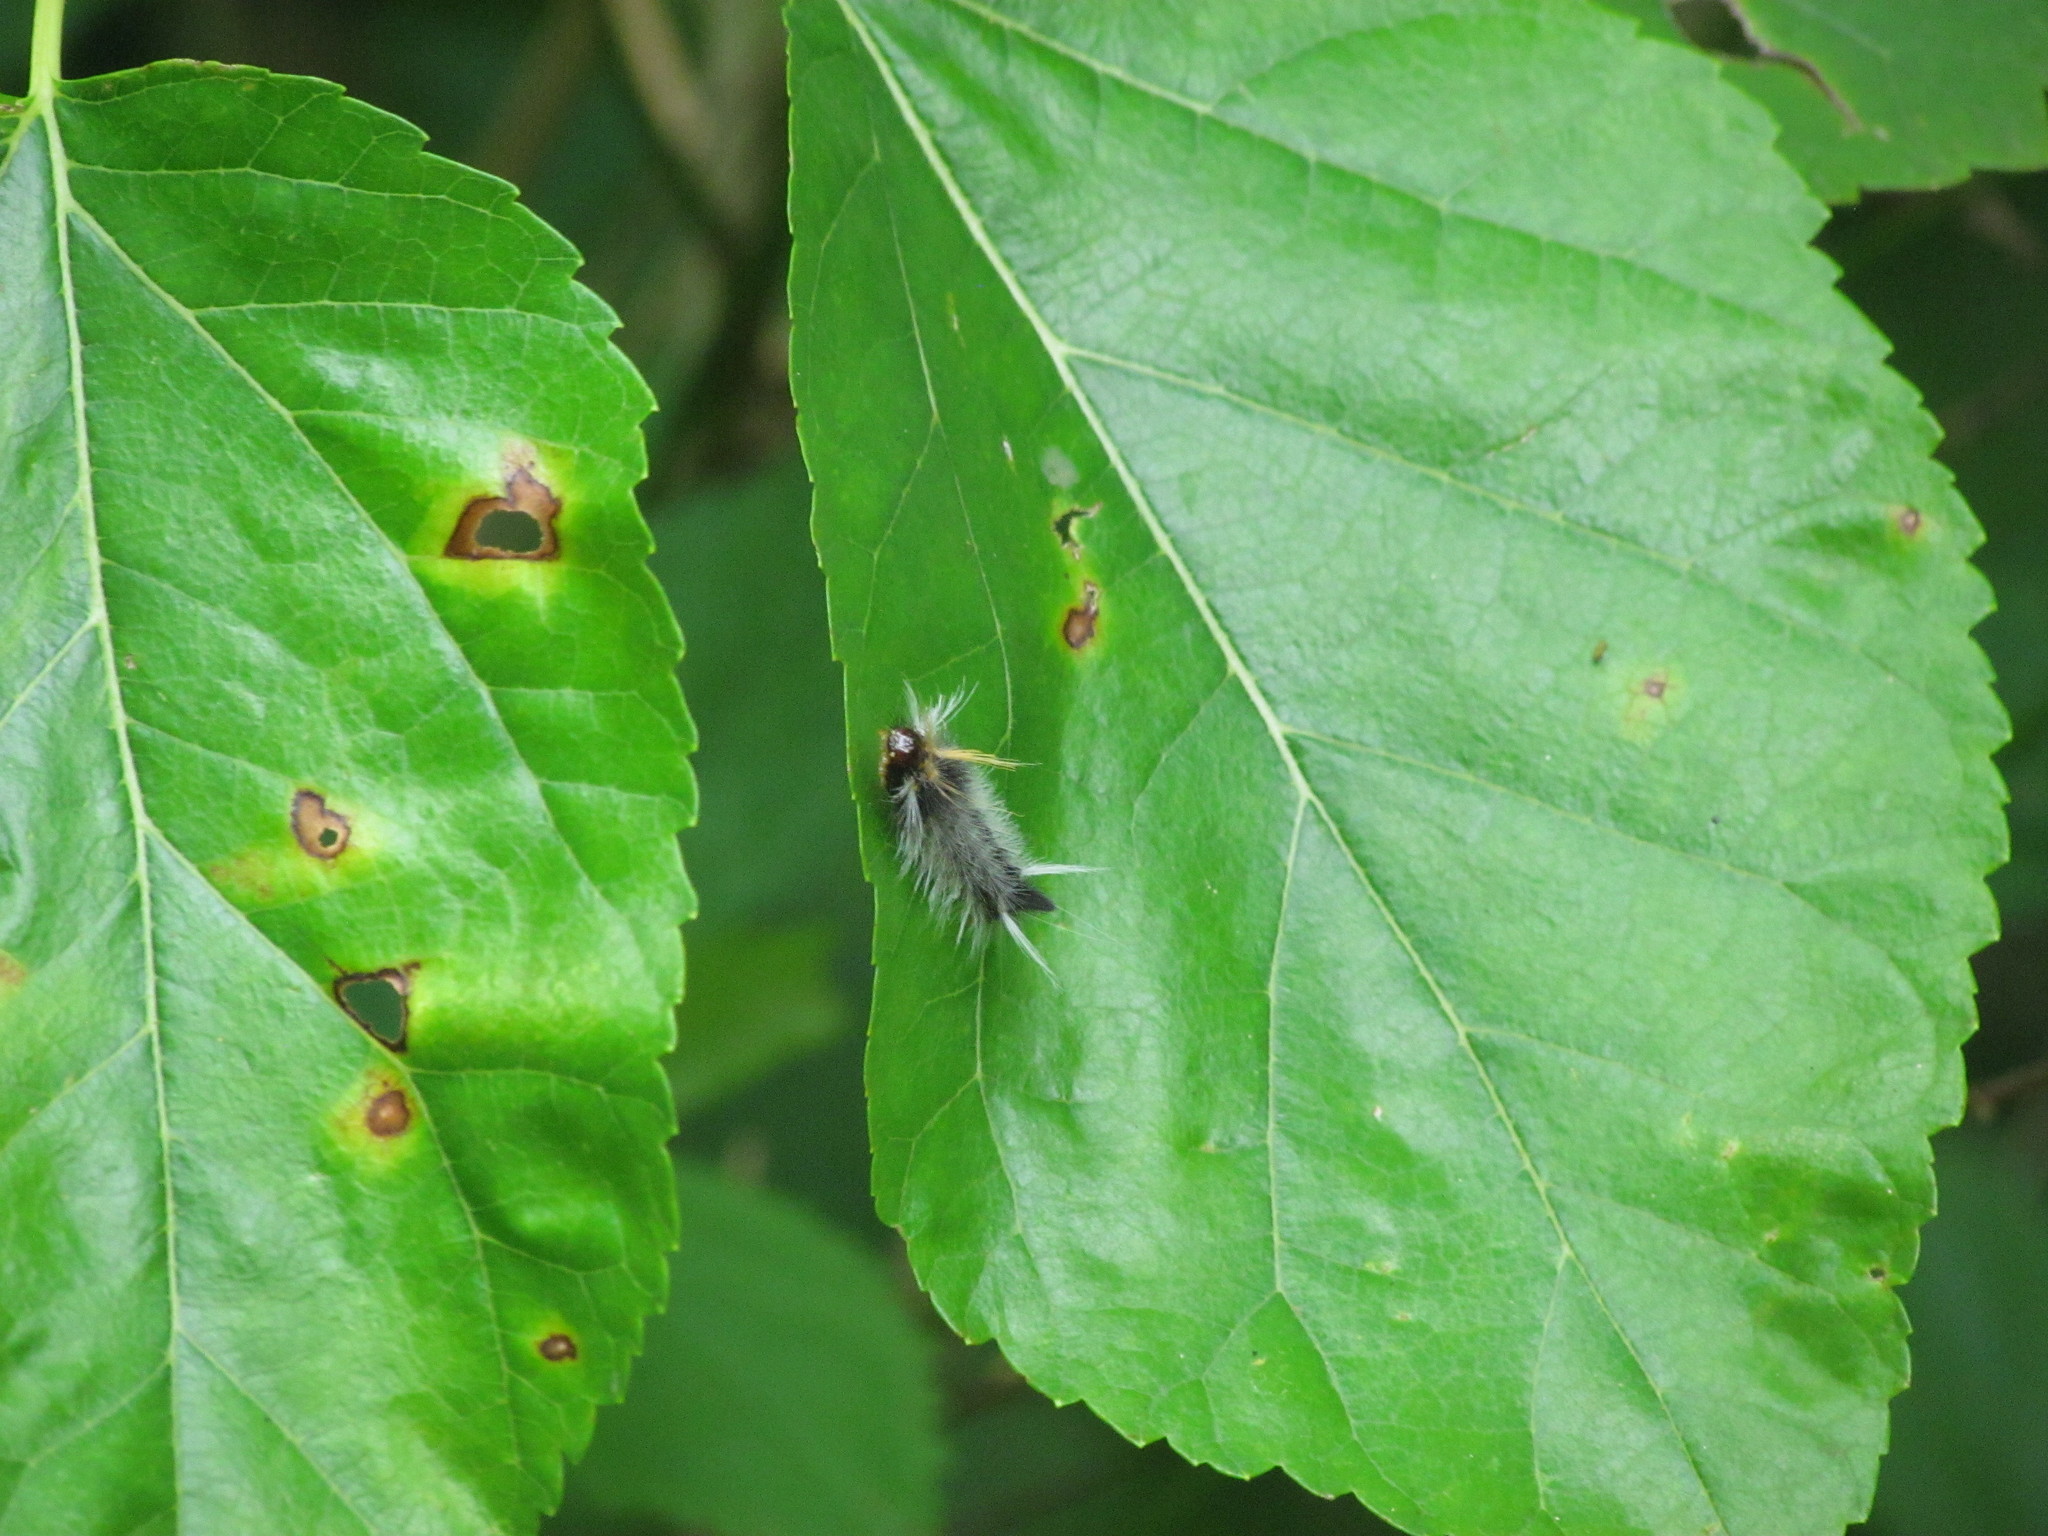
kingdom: Animalia
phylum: Arthropoda
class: Insecta
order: Lepidoptera
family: Erebidae
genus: Halysidota
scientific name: Halysidota ruscheweyhi
